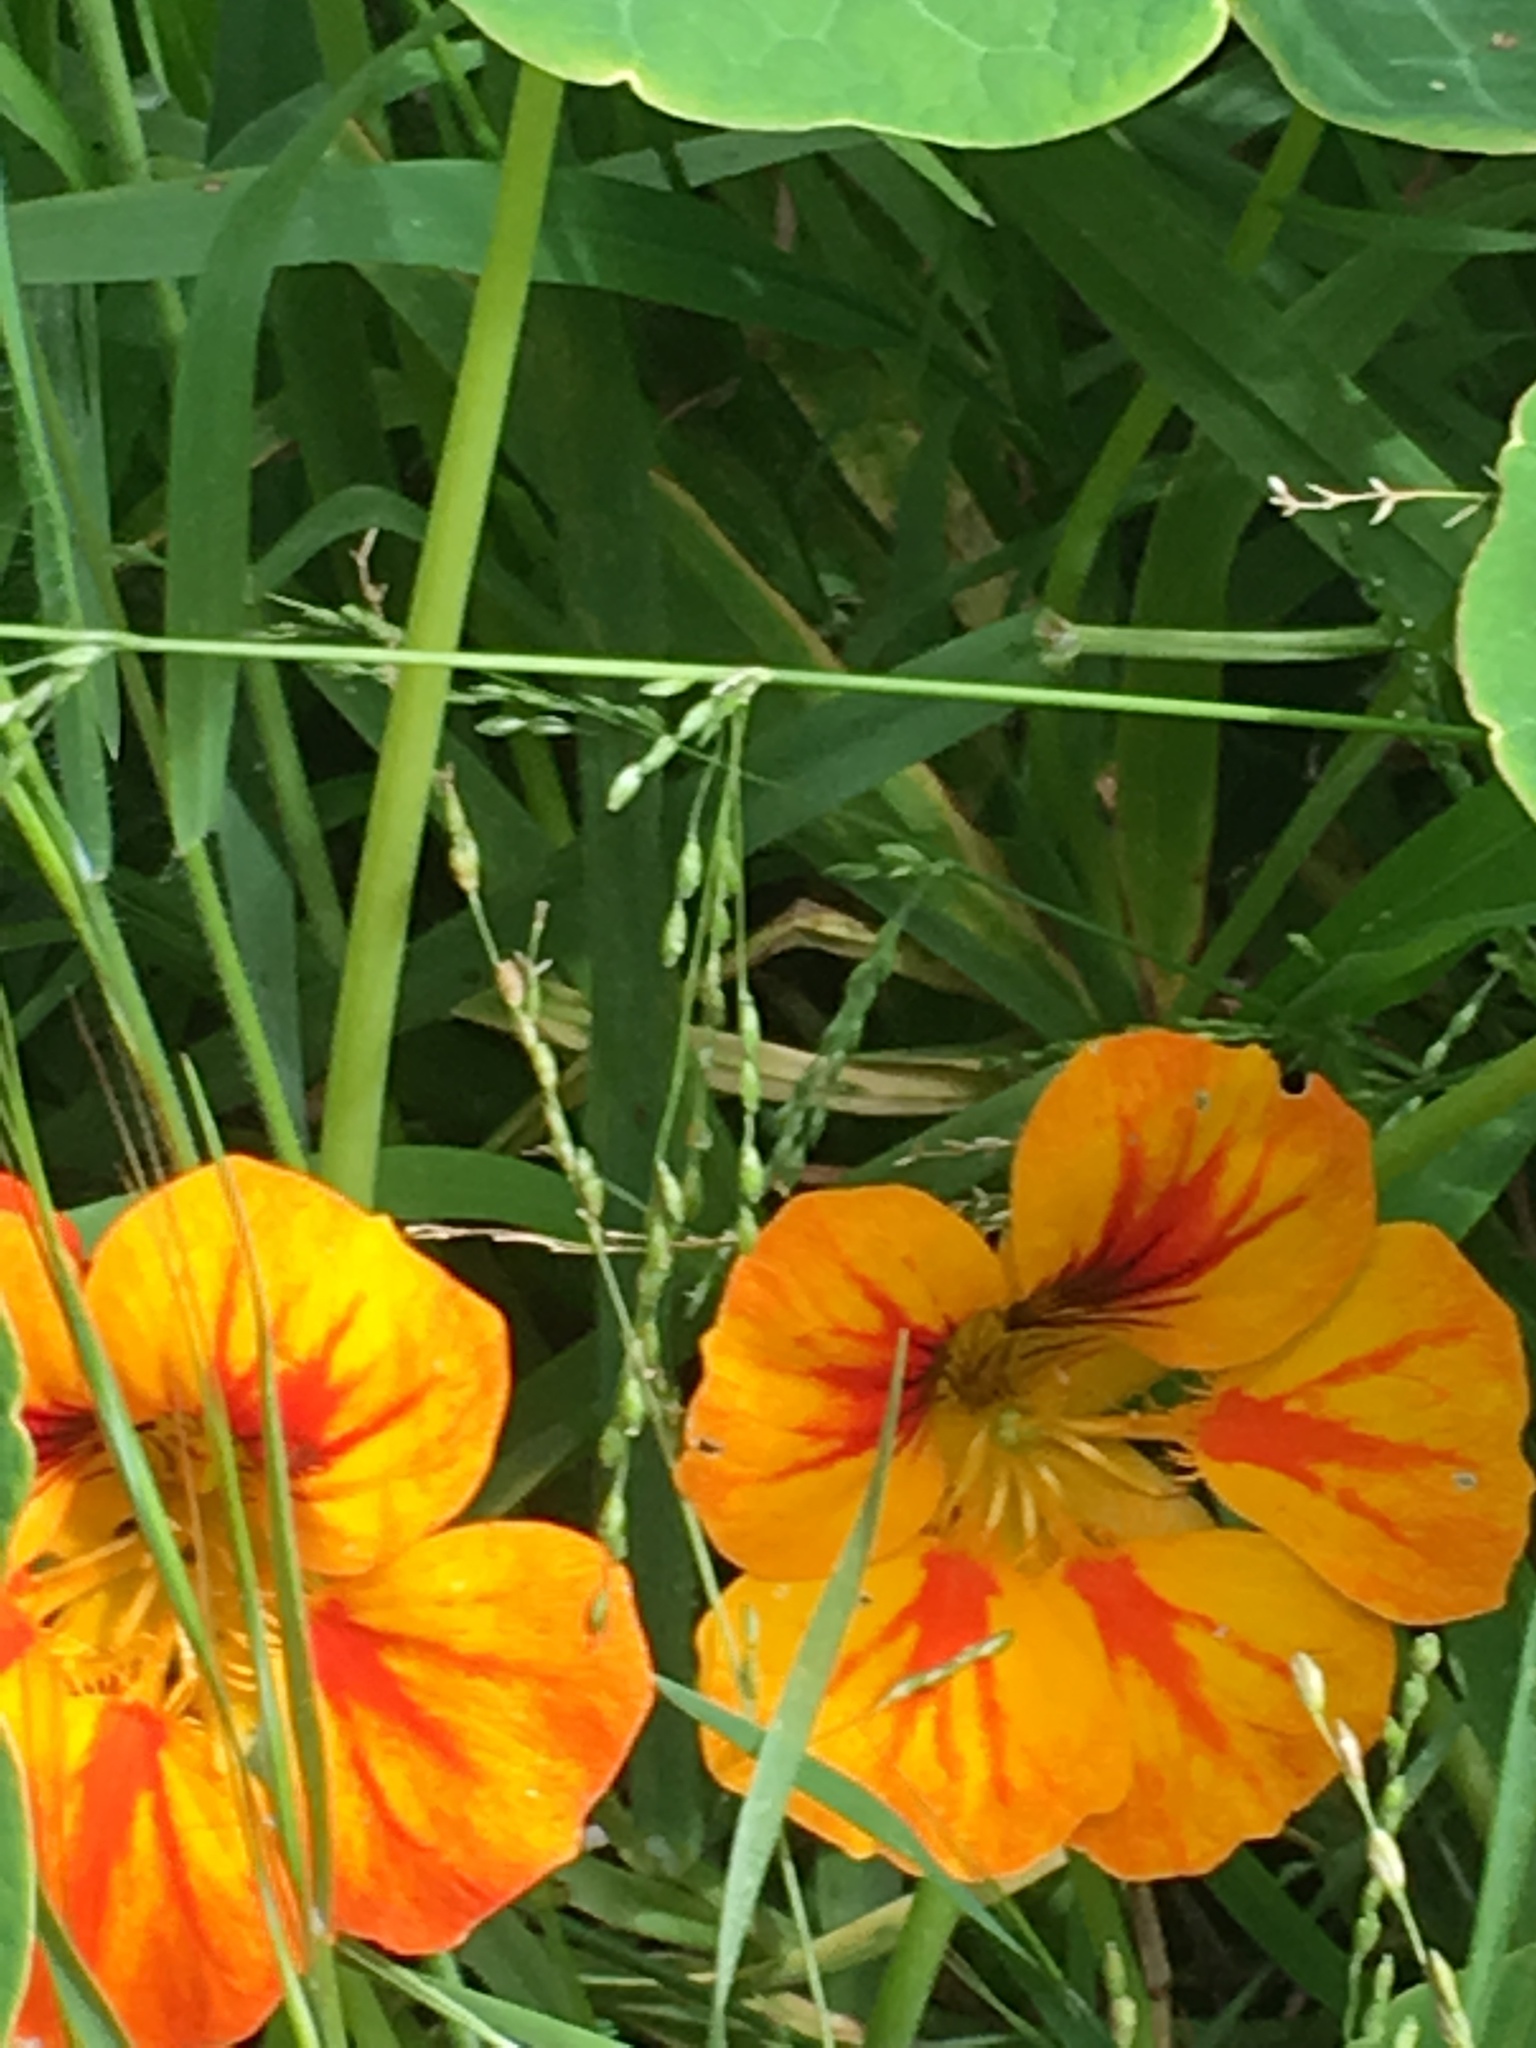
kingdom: Plantae
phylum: Tracheophyta
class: Magnoliopsida
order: Brassicales
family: Tropaeolaceae
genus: Tropaeolum
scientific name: Tropaeolum majus
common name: Nasturtium
